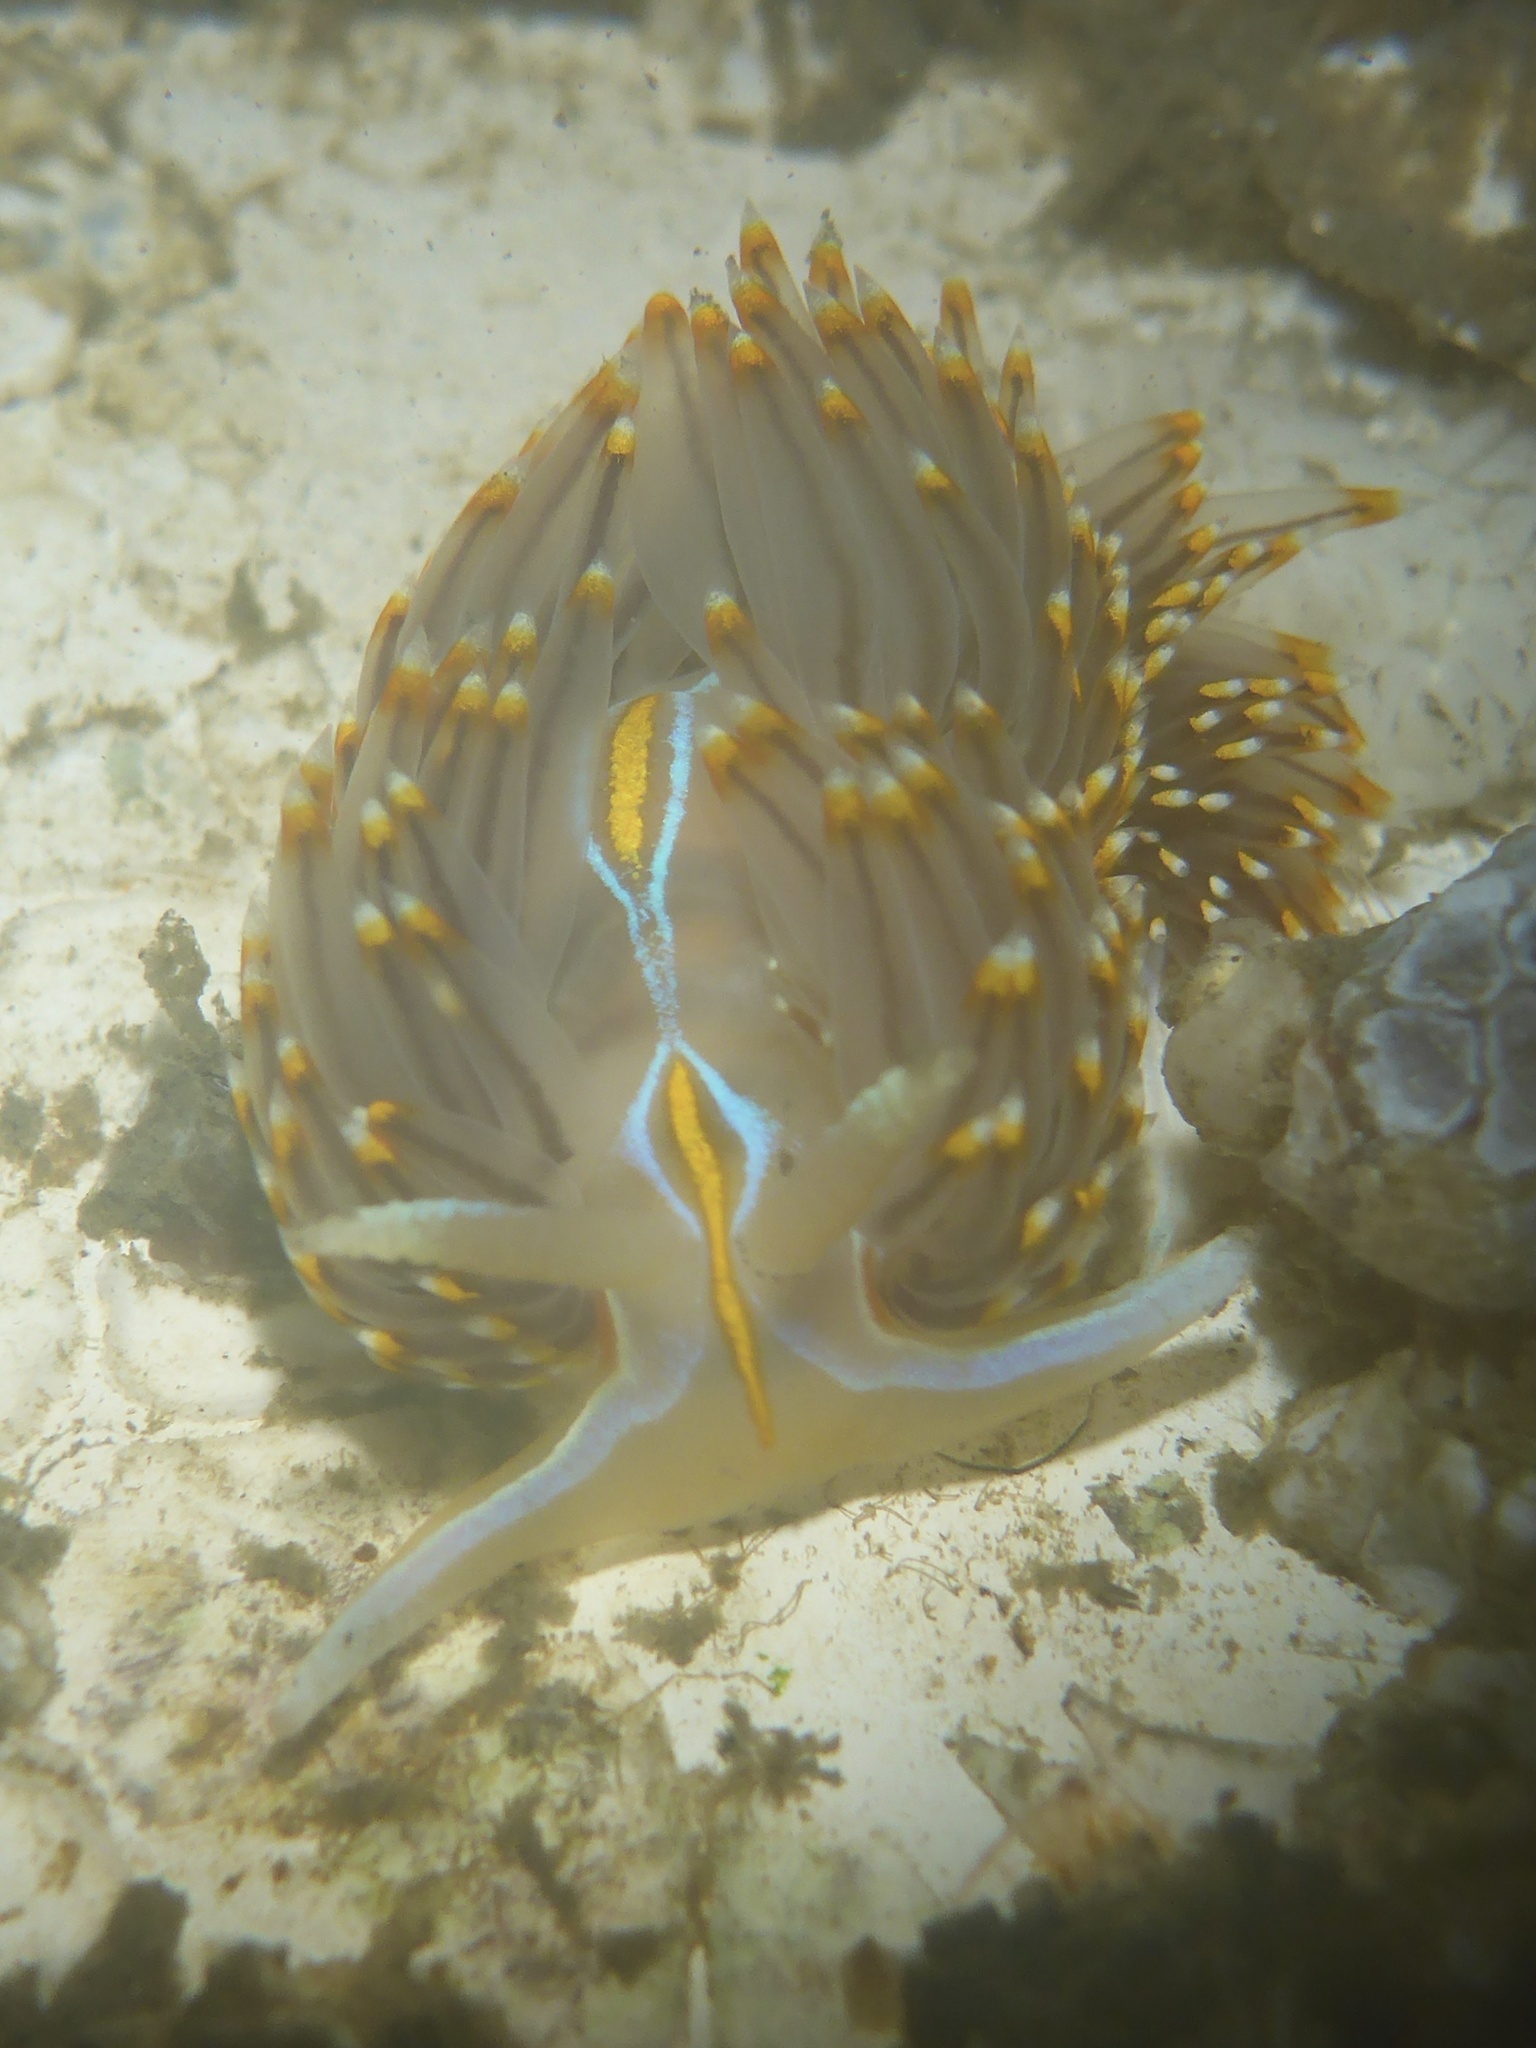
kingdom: Animalia
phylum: Mollusca
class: Gastropoda
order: Nudibranchia
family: Myrrhinidae
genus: Hermissenda
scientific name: Hermissenda opalescens
